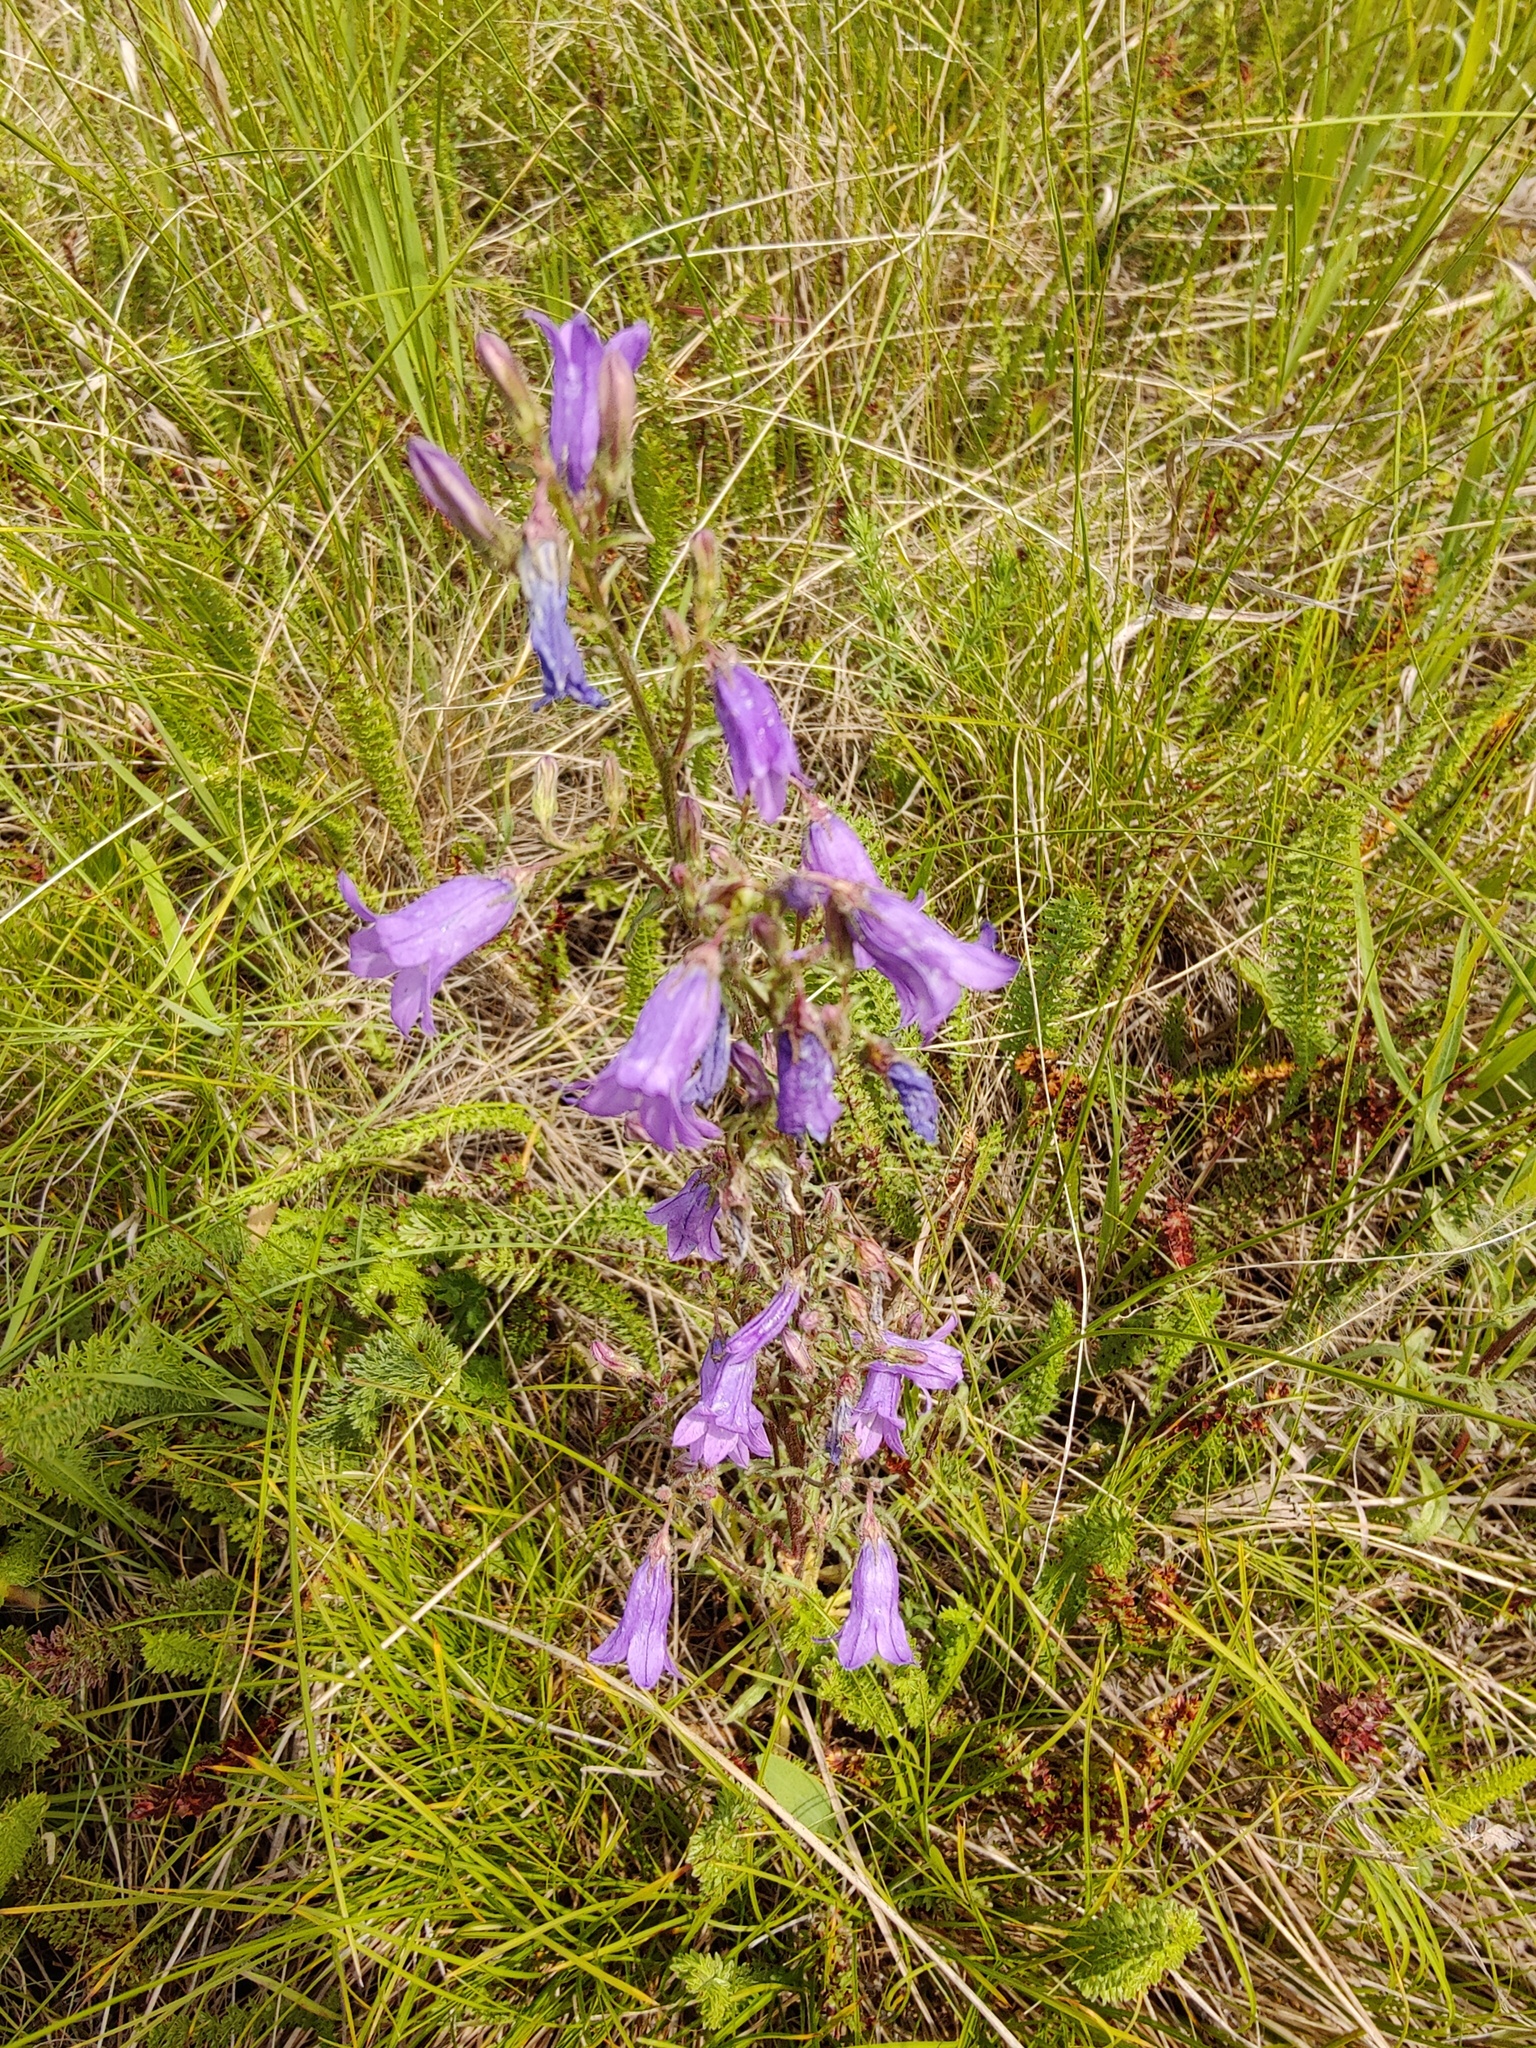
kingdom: Plantae
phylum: Tracheophyta
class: Magnoliopsida
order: Asterales
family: Campanulaceae
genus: Campanula
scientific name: Campanula sibirica
